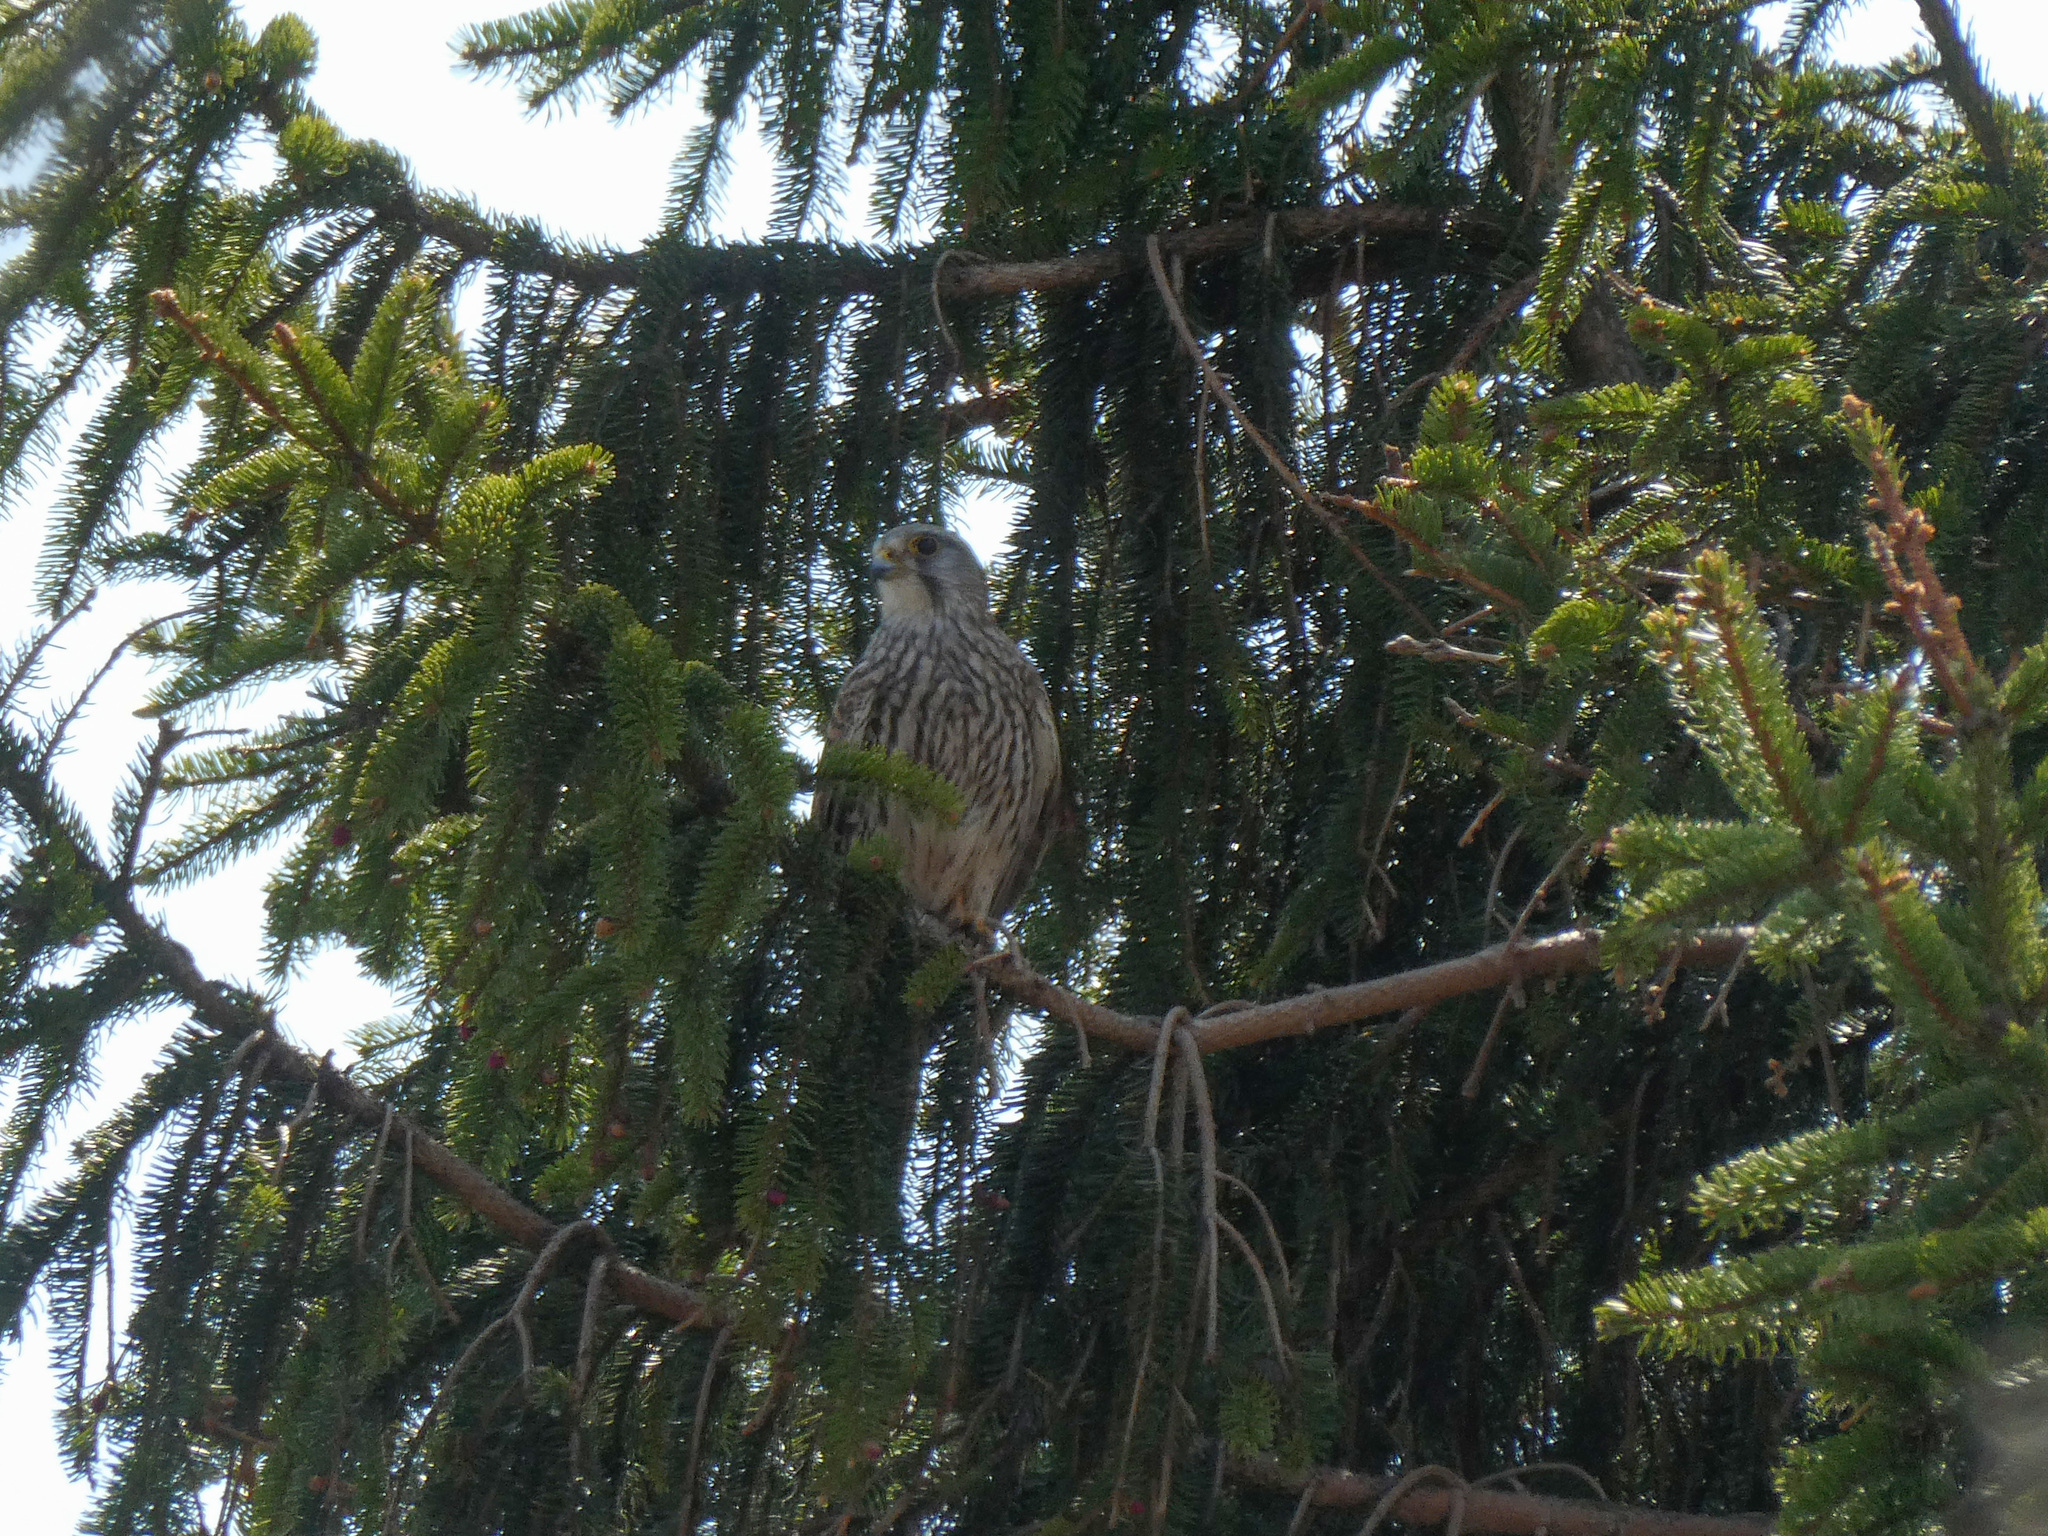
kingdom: Animalia
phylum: Chordata
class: Aves
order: Falconiformes
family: Falconidae
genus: Falco
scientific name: Falco tinnunculus
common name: Common kestrel
